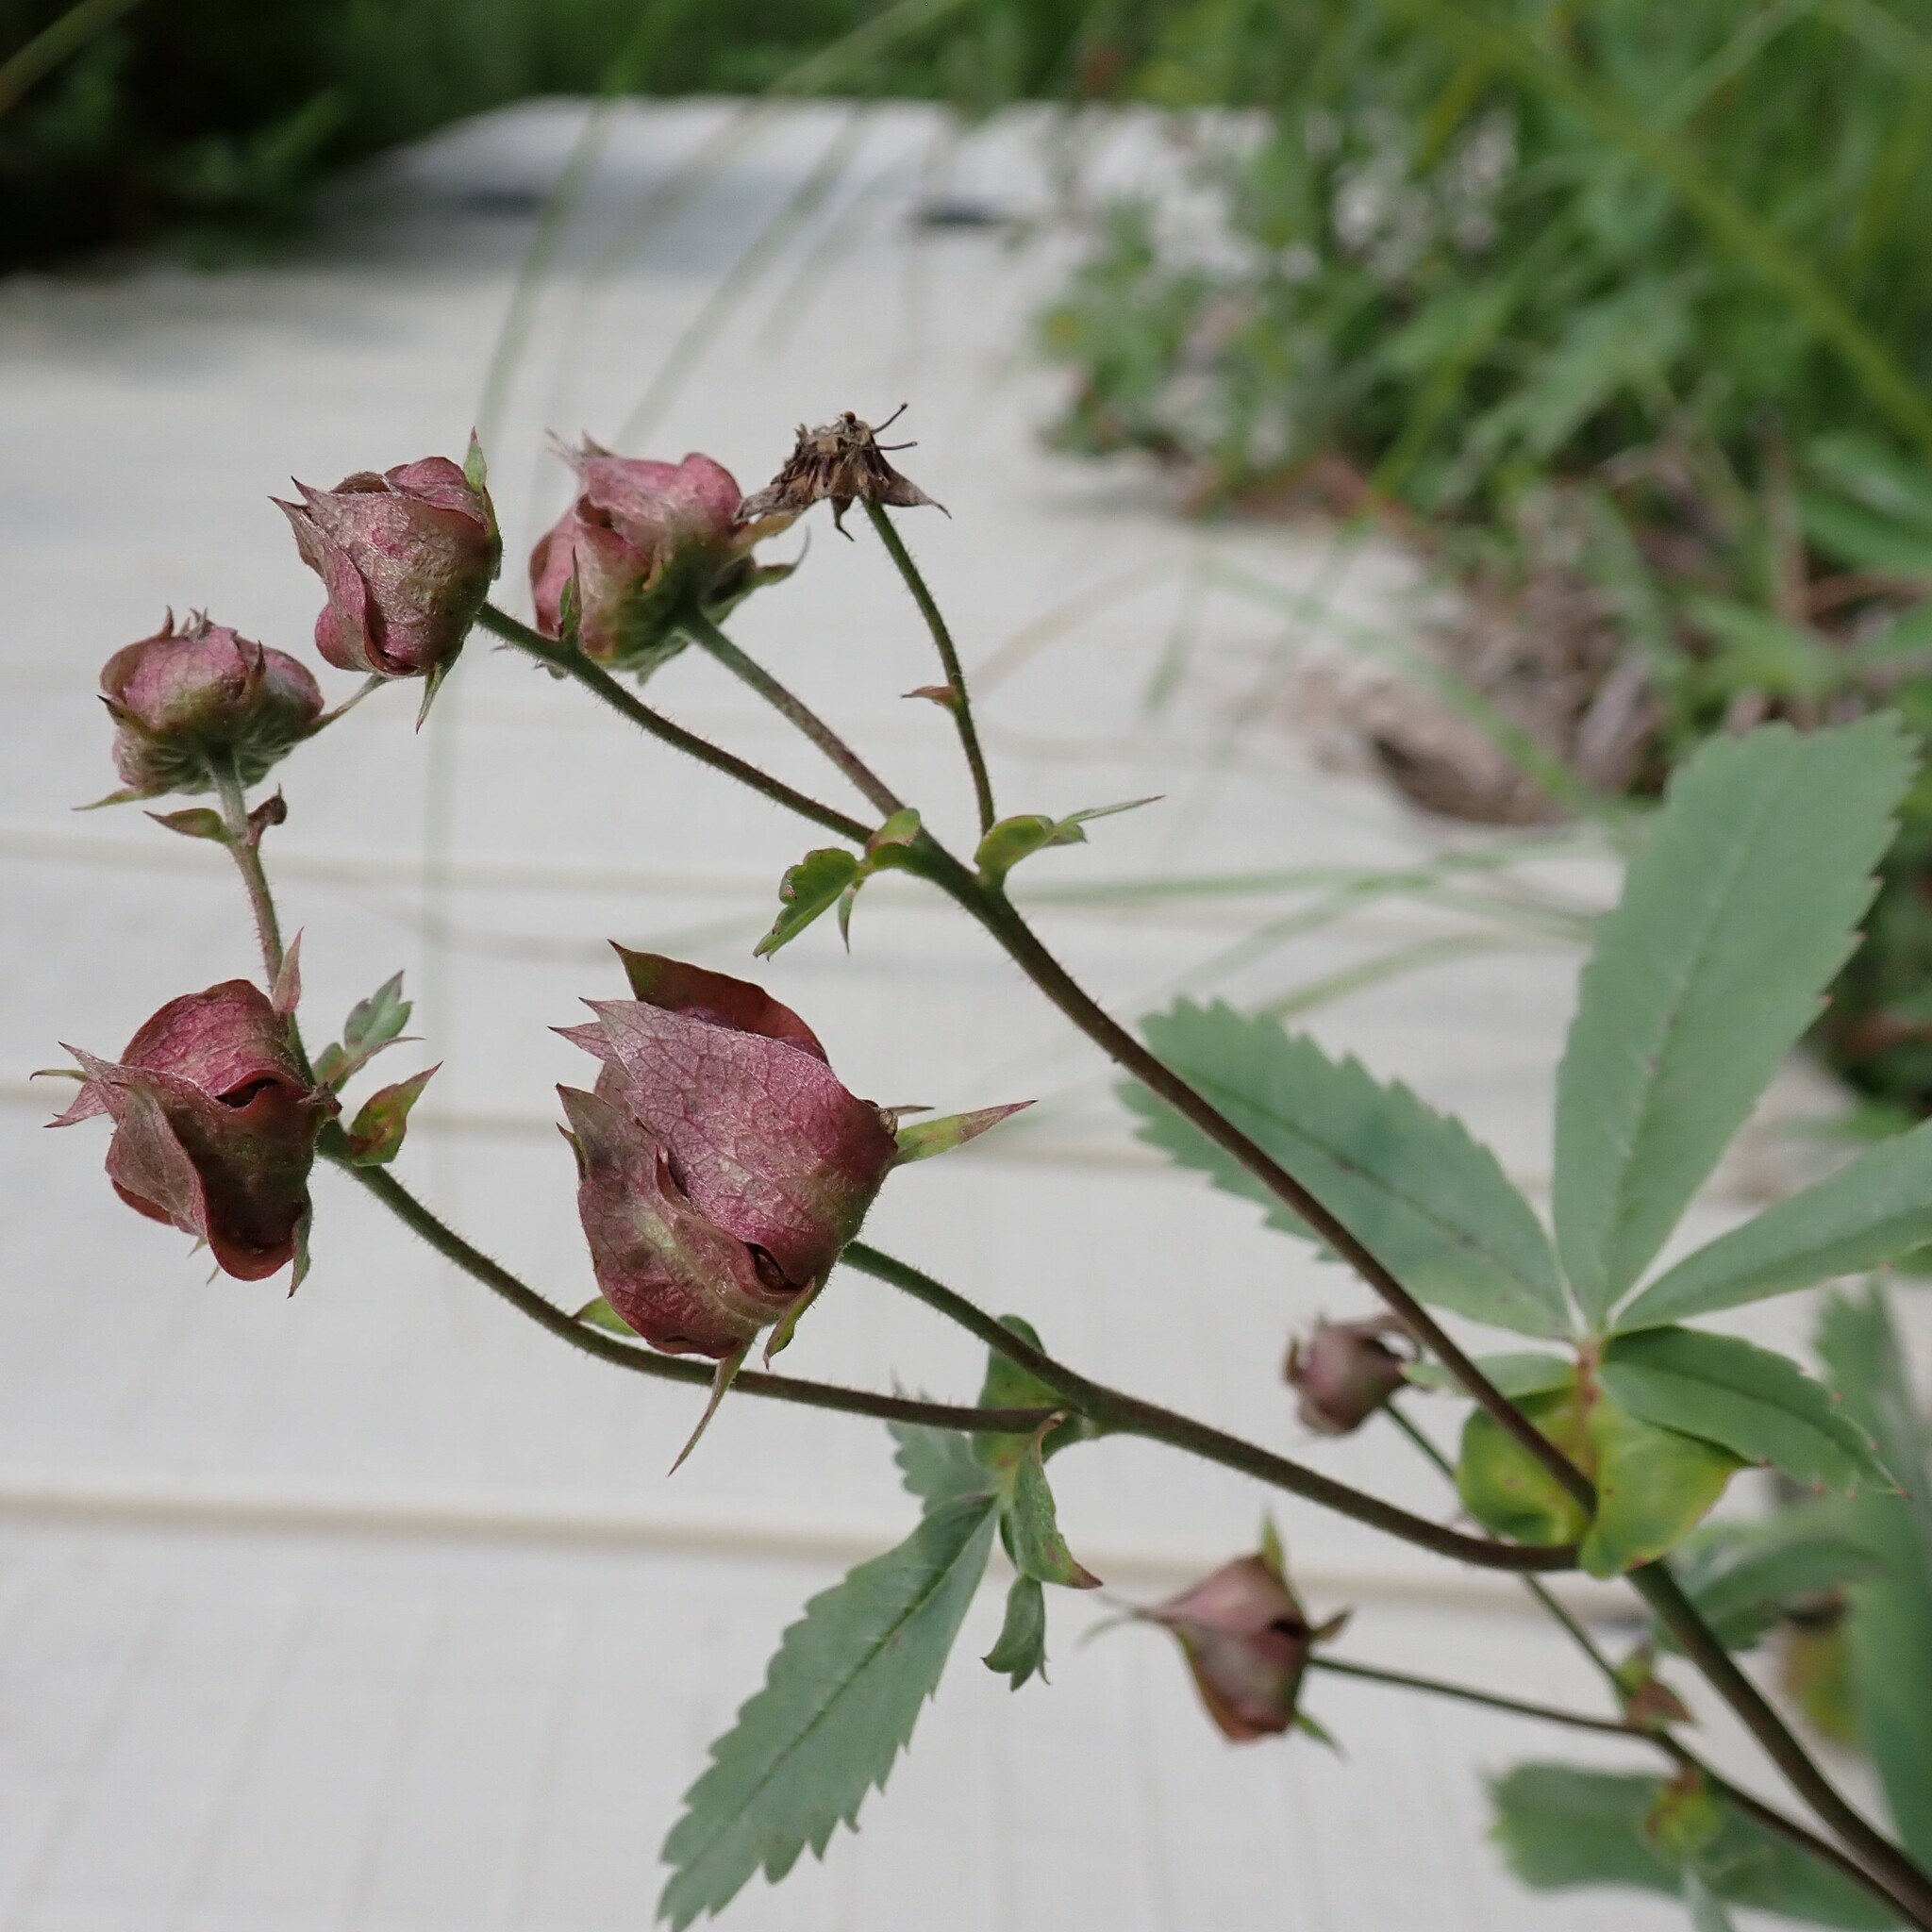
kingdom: Plantae
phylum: Tracheophyta
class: Magnoliopsida
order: Rosales
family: Rosaceae
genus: Comarum
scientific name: Comarum palustre
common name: Marsh cinquefoil
